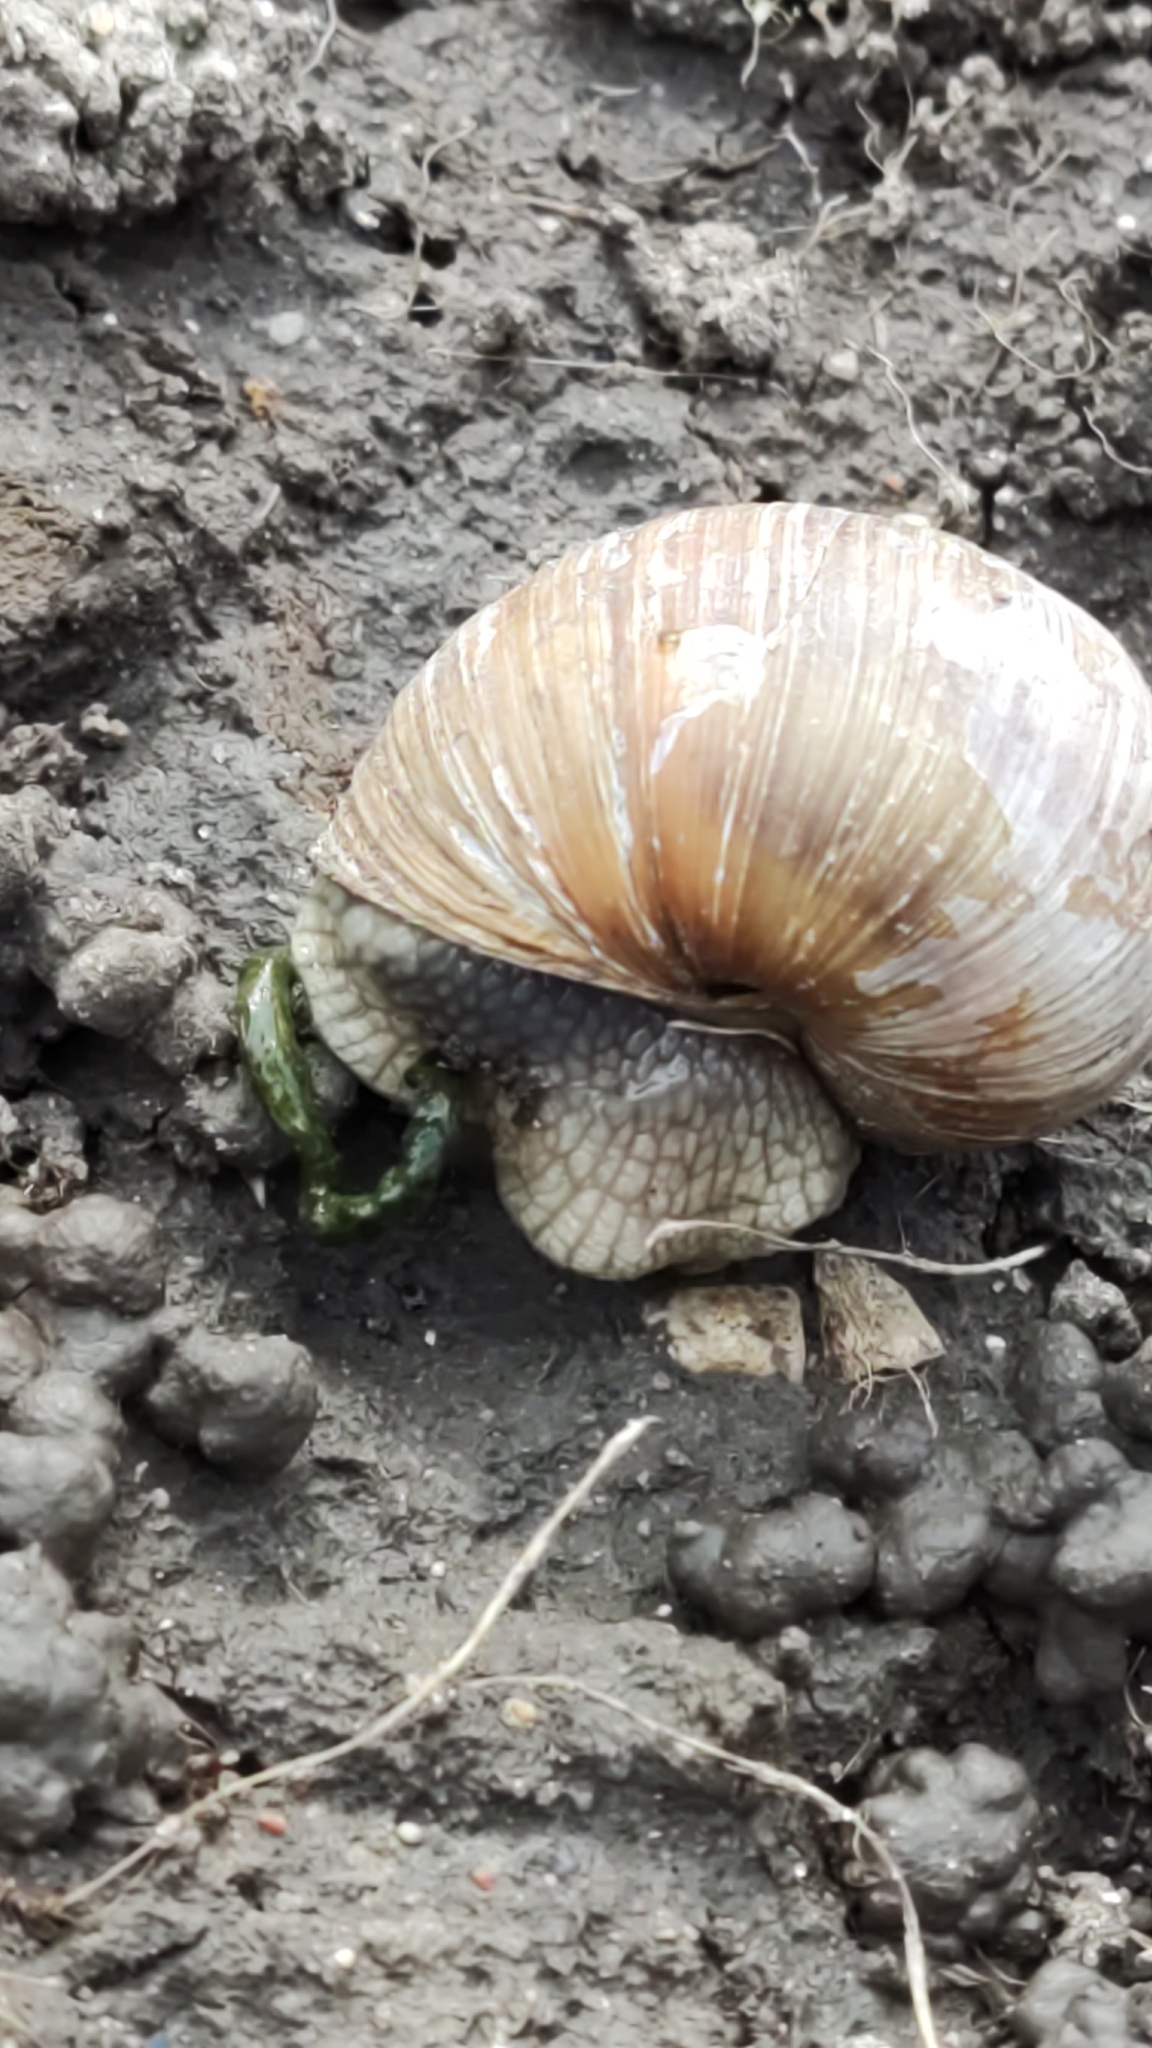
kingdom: Animalia
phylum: Mollusca
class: Gastropoda
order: Stylommatophora
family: Helicidae
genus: Helix
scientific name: Helix pomatia
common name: Roman snail
